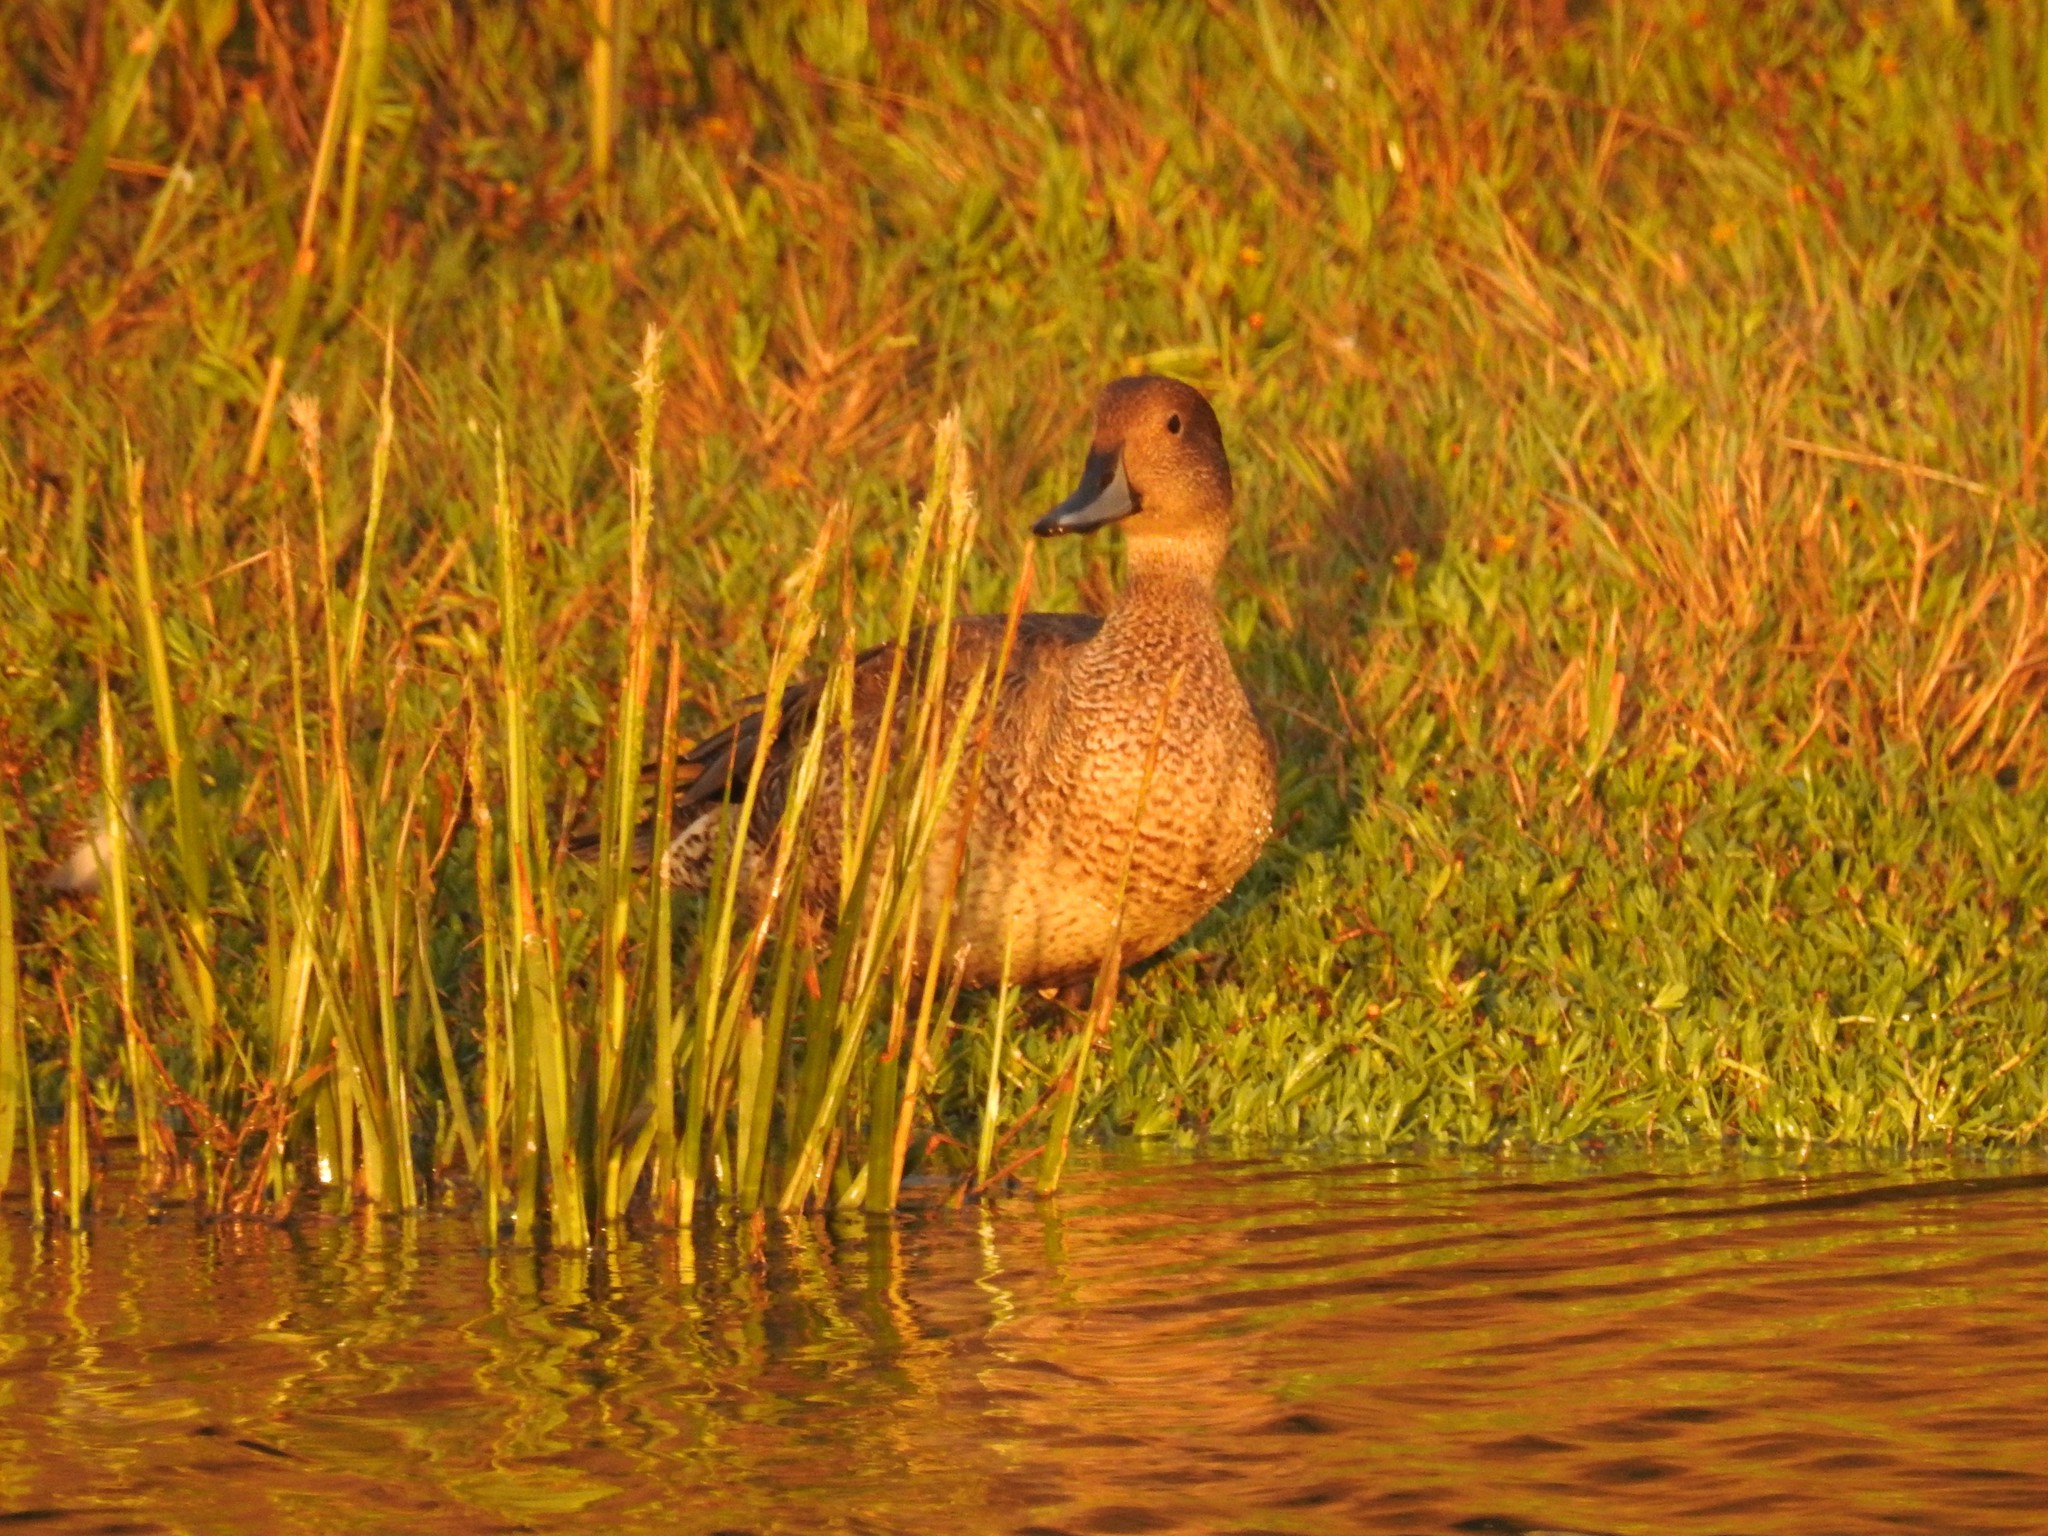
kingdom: Animalia
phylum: Chordata
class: Aves
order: Anseriformes
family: Anatidae
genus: Anas
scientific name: Anas acuta
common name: Northern pintail
